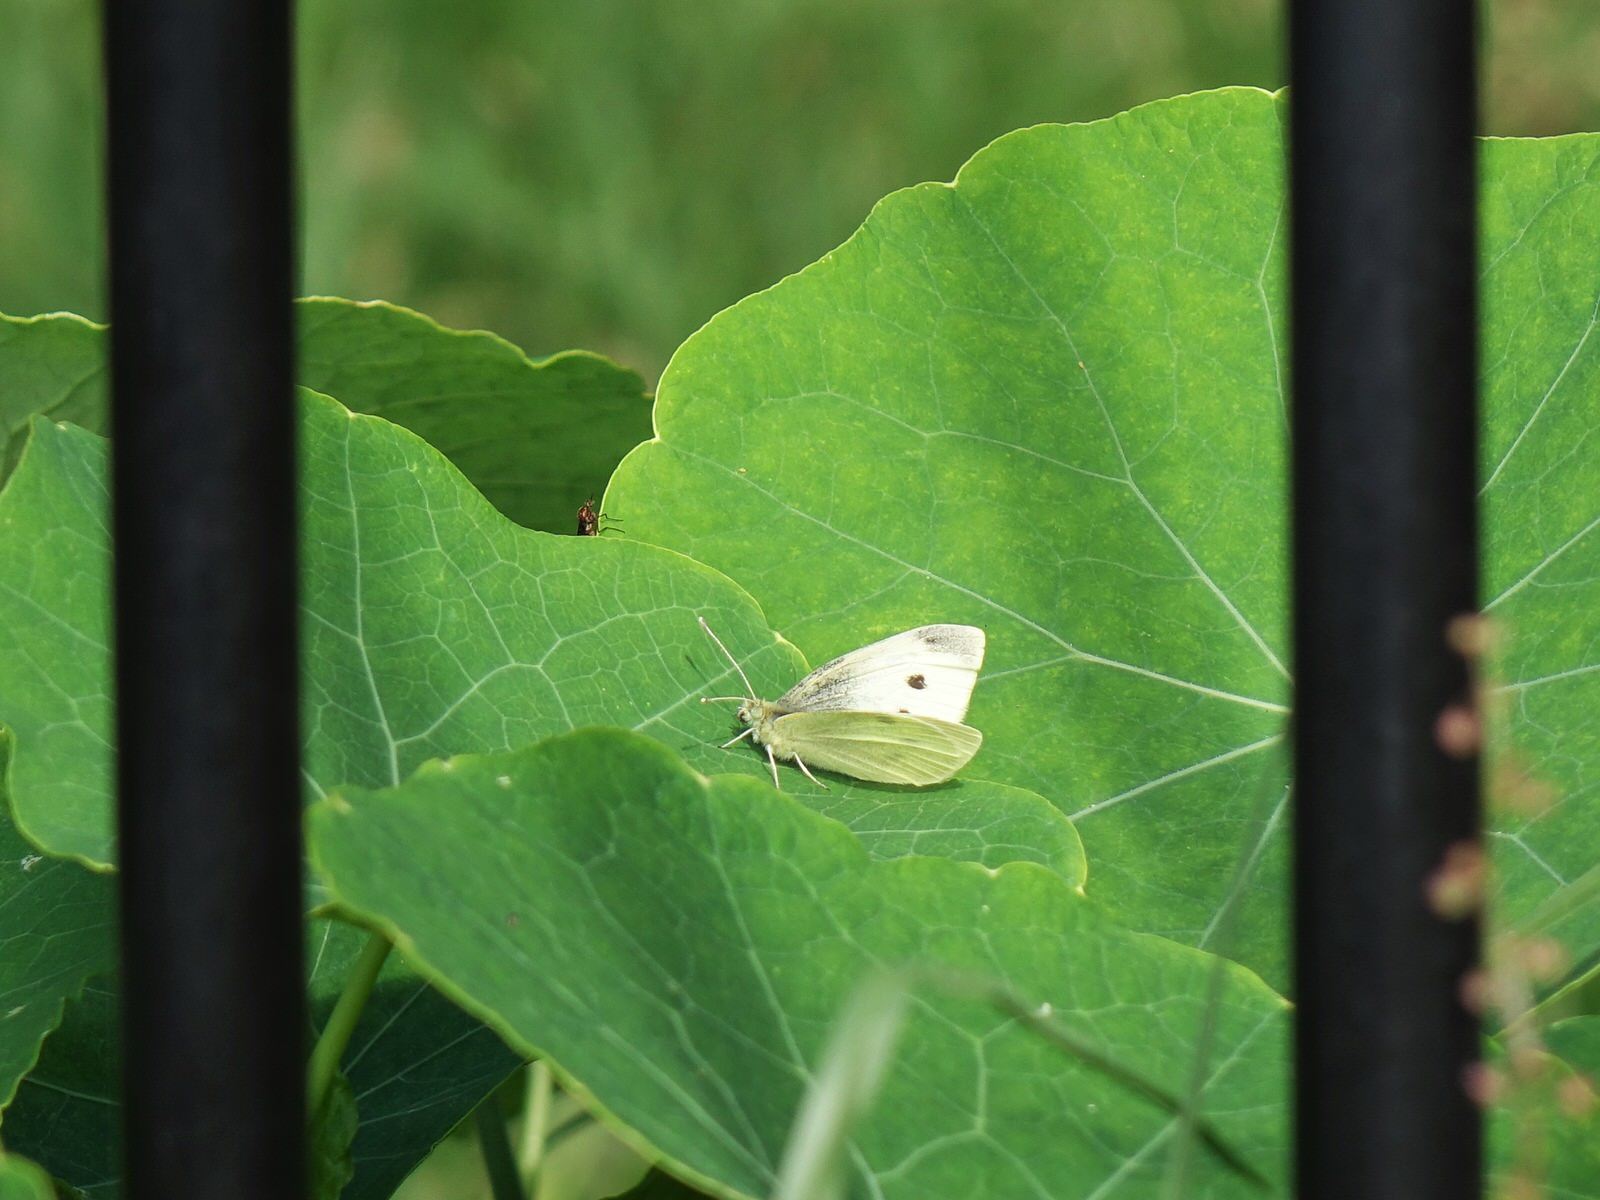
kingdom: Animalia
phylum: Arthropoda
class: Insecta
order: Lepidoptera
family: Pieridae
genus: Pieris
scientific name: Pieris rapae
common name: Small white
